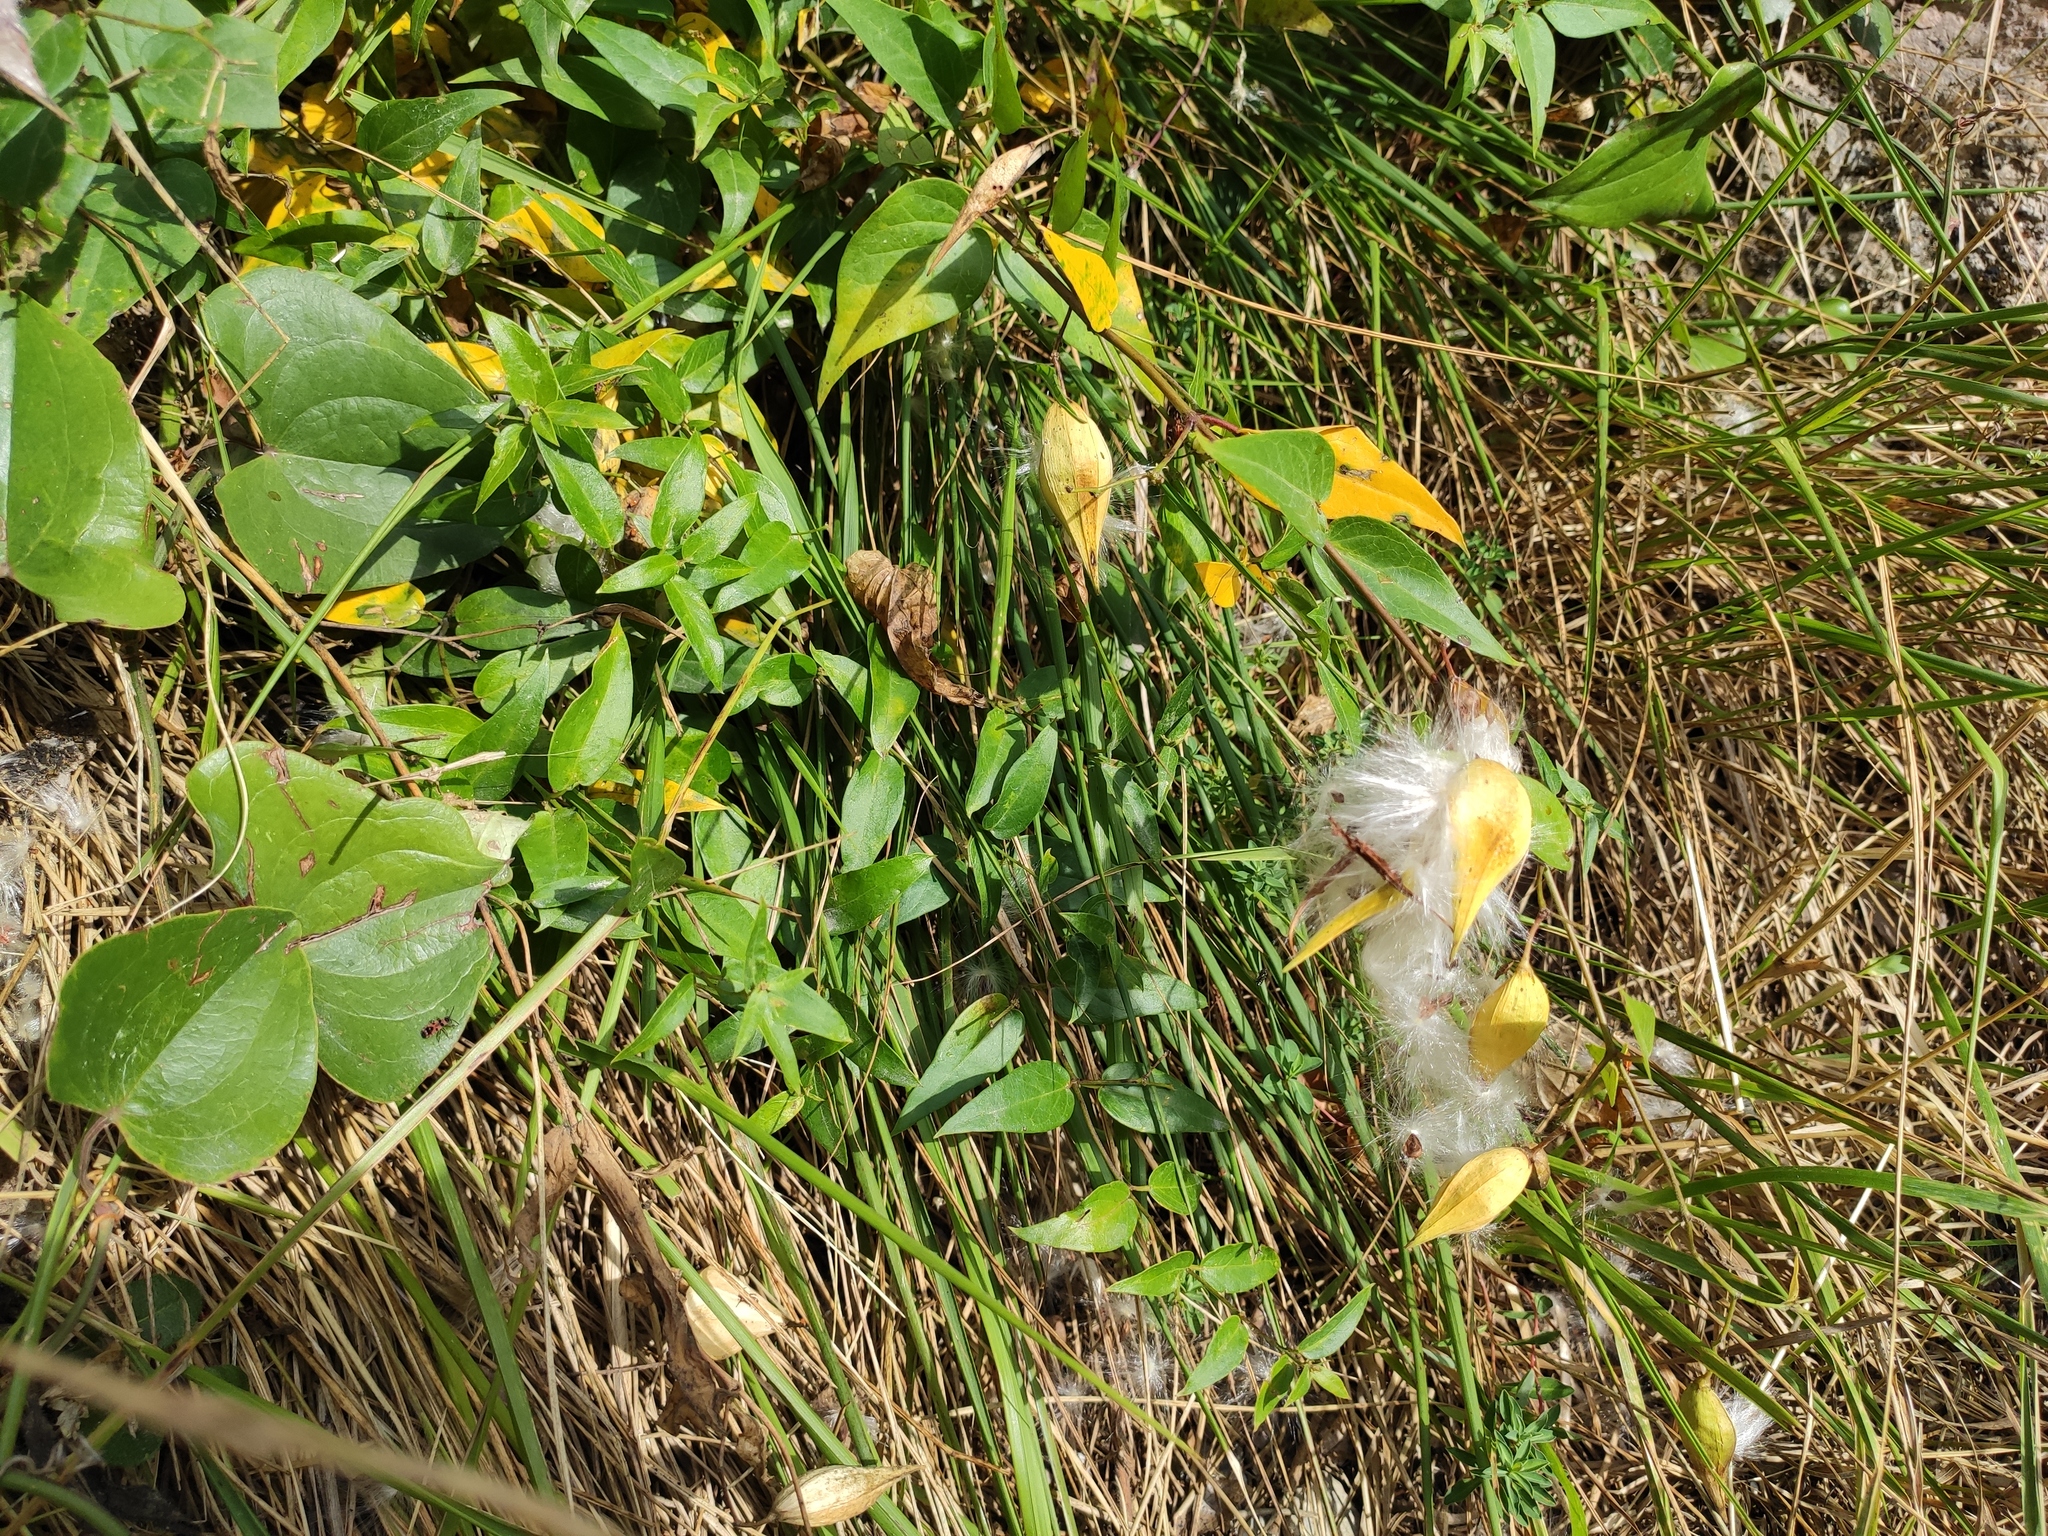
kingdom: Plantae
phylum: Tracheophyta
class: Magnoliopsida
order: Gentianales
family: Apocynaceae
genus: Vincetoxicum
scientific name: Vincetoxicum hirundinaria
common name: White swallowwort
